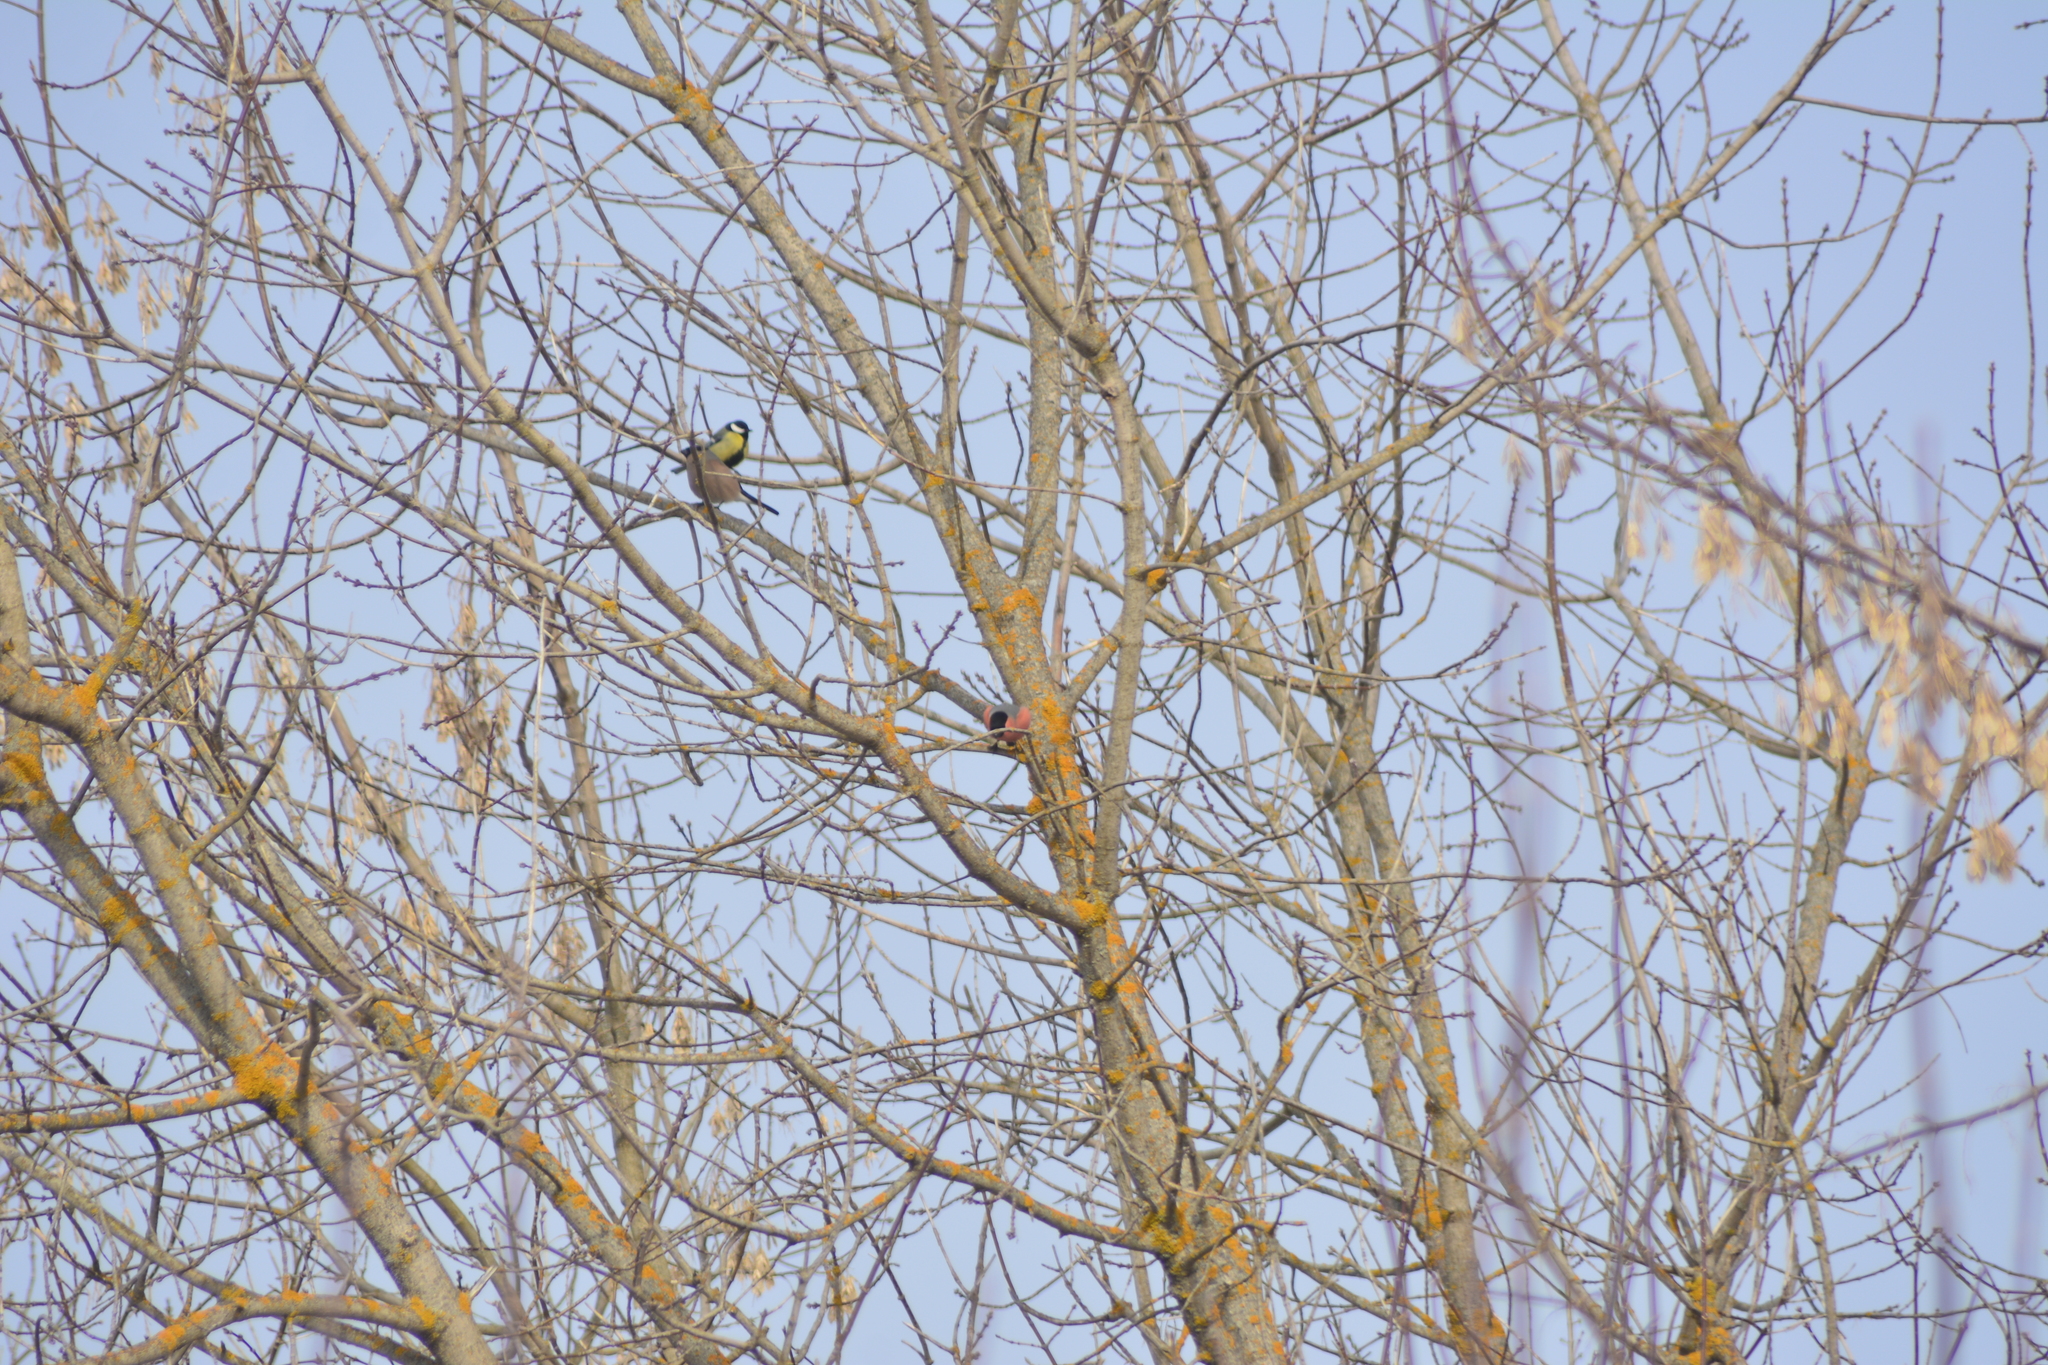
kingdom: Animalia
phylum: Chordata
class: Aves
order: Passeriformes
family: Fringillidae
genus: Pyrrhula
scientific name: Pyrrhula pyrrhula
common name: Eurasian bullfinch
